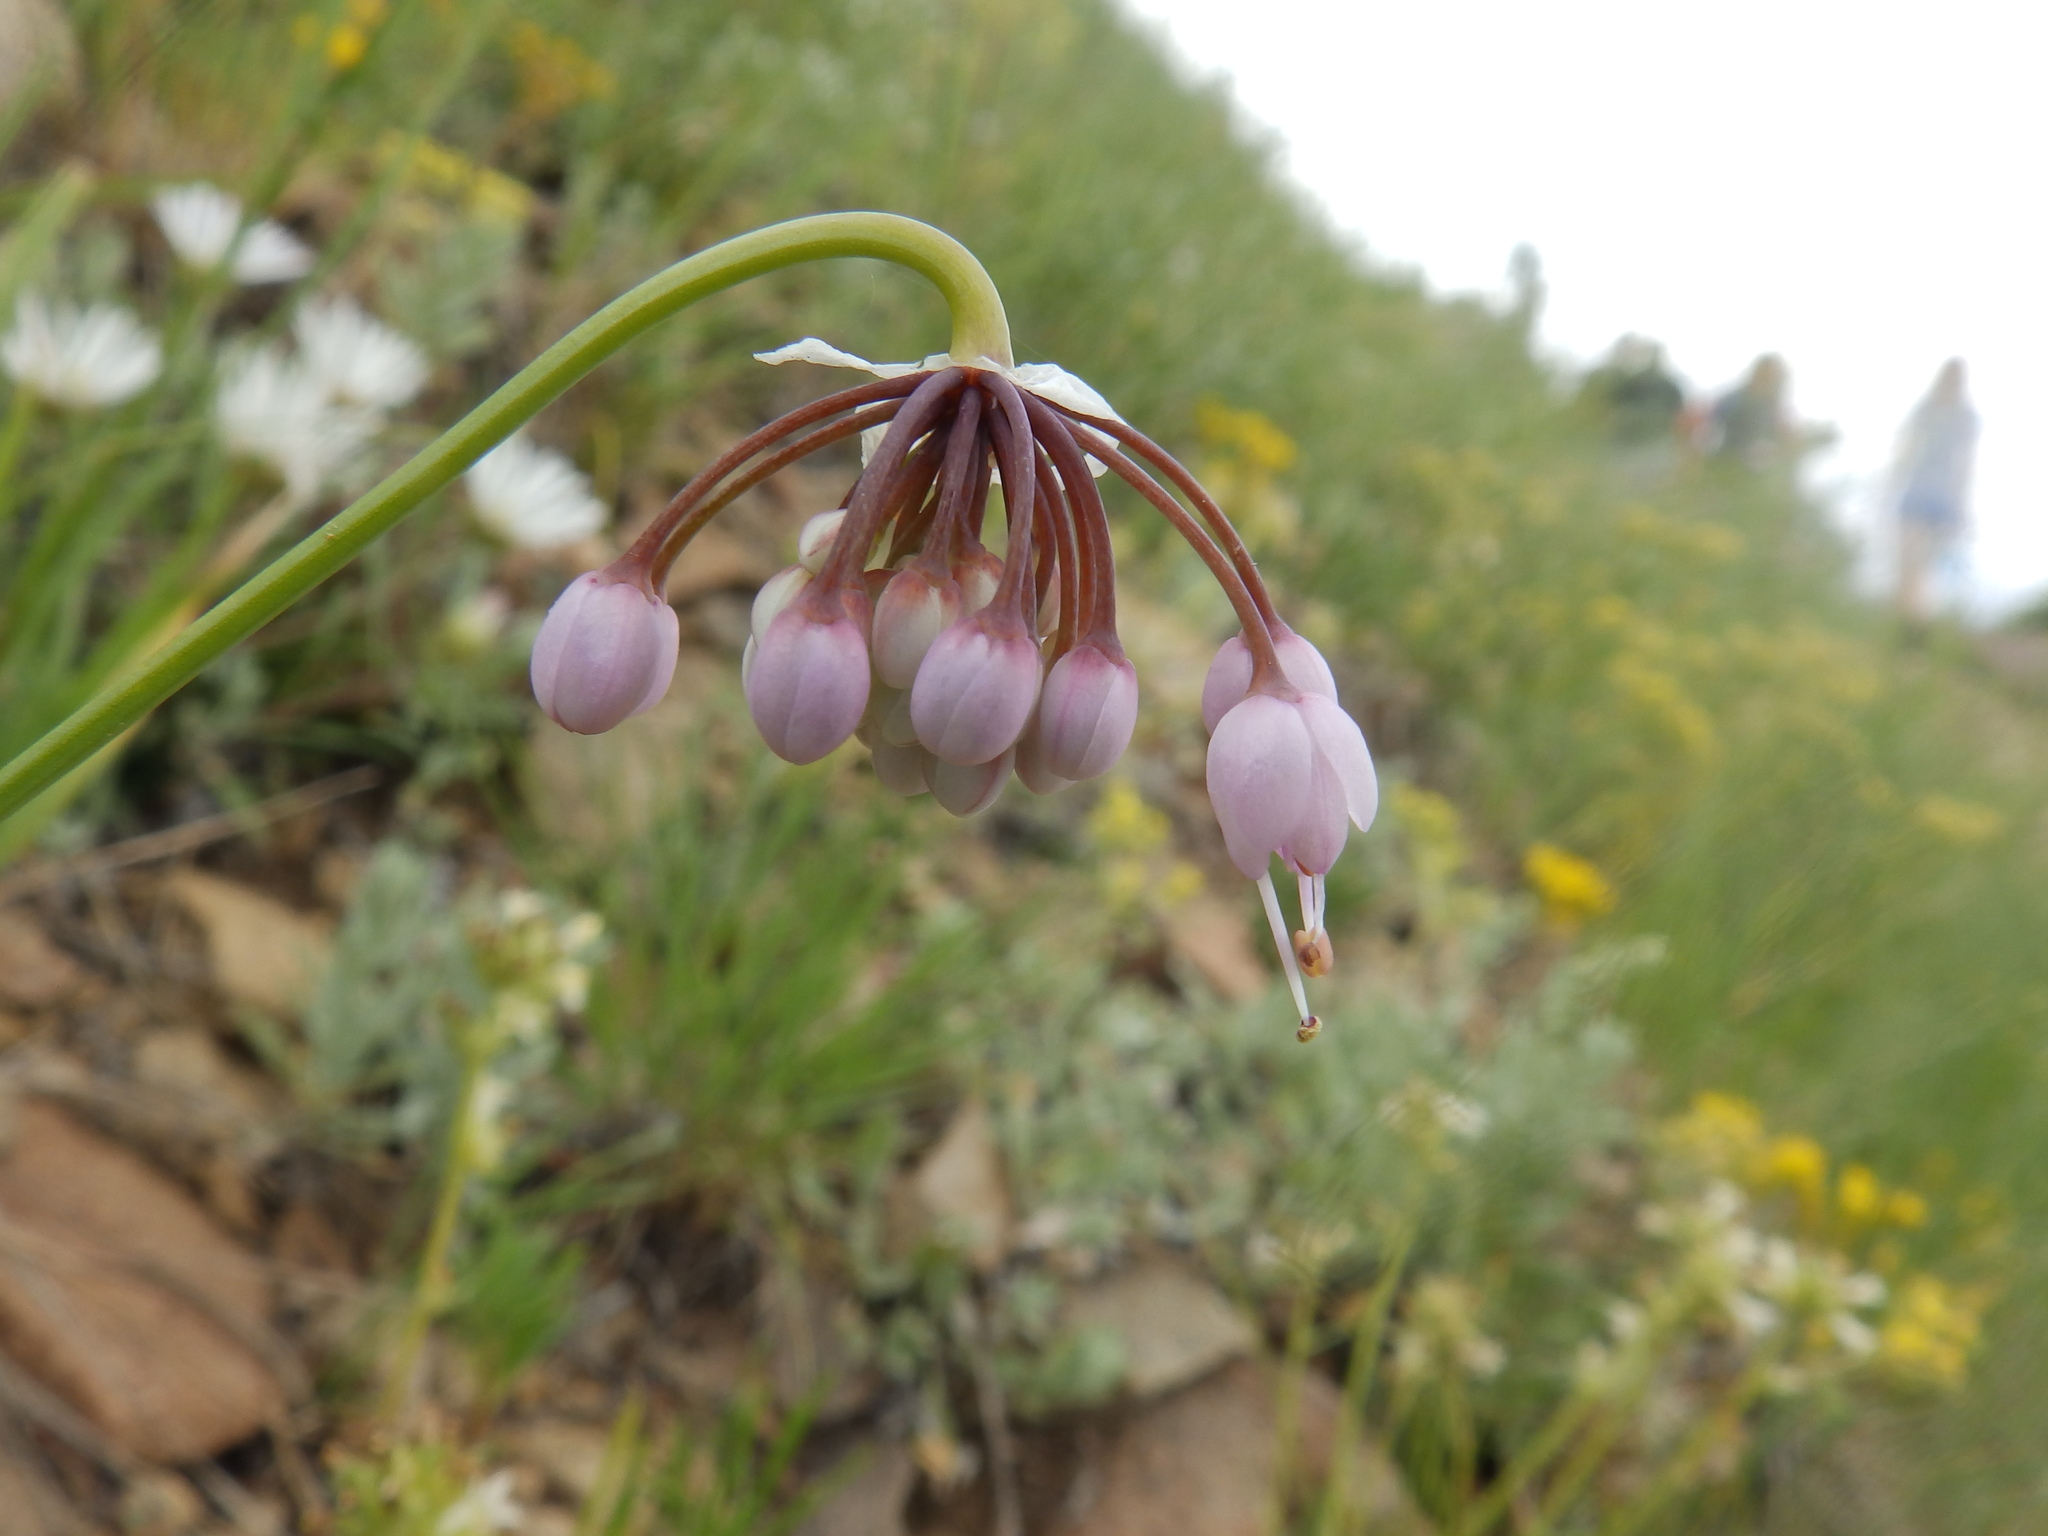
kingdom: Plantae
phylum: Tracheophyta
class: Liliopsida
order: Asparagales
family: Amaryllidaceae
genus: Allium
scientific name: Allium cernuum
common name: Nodding onion
